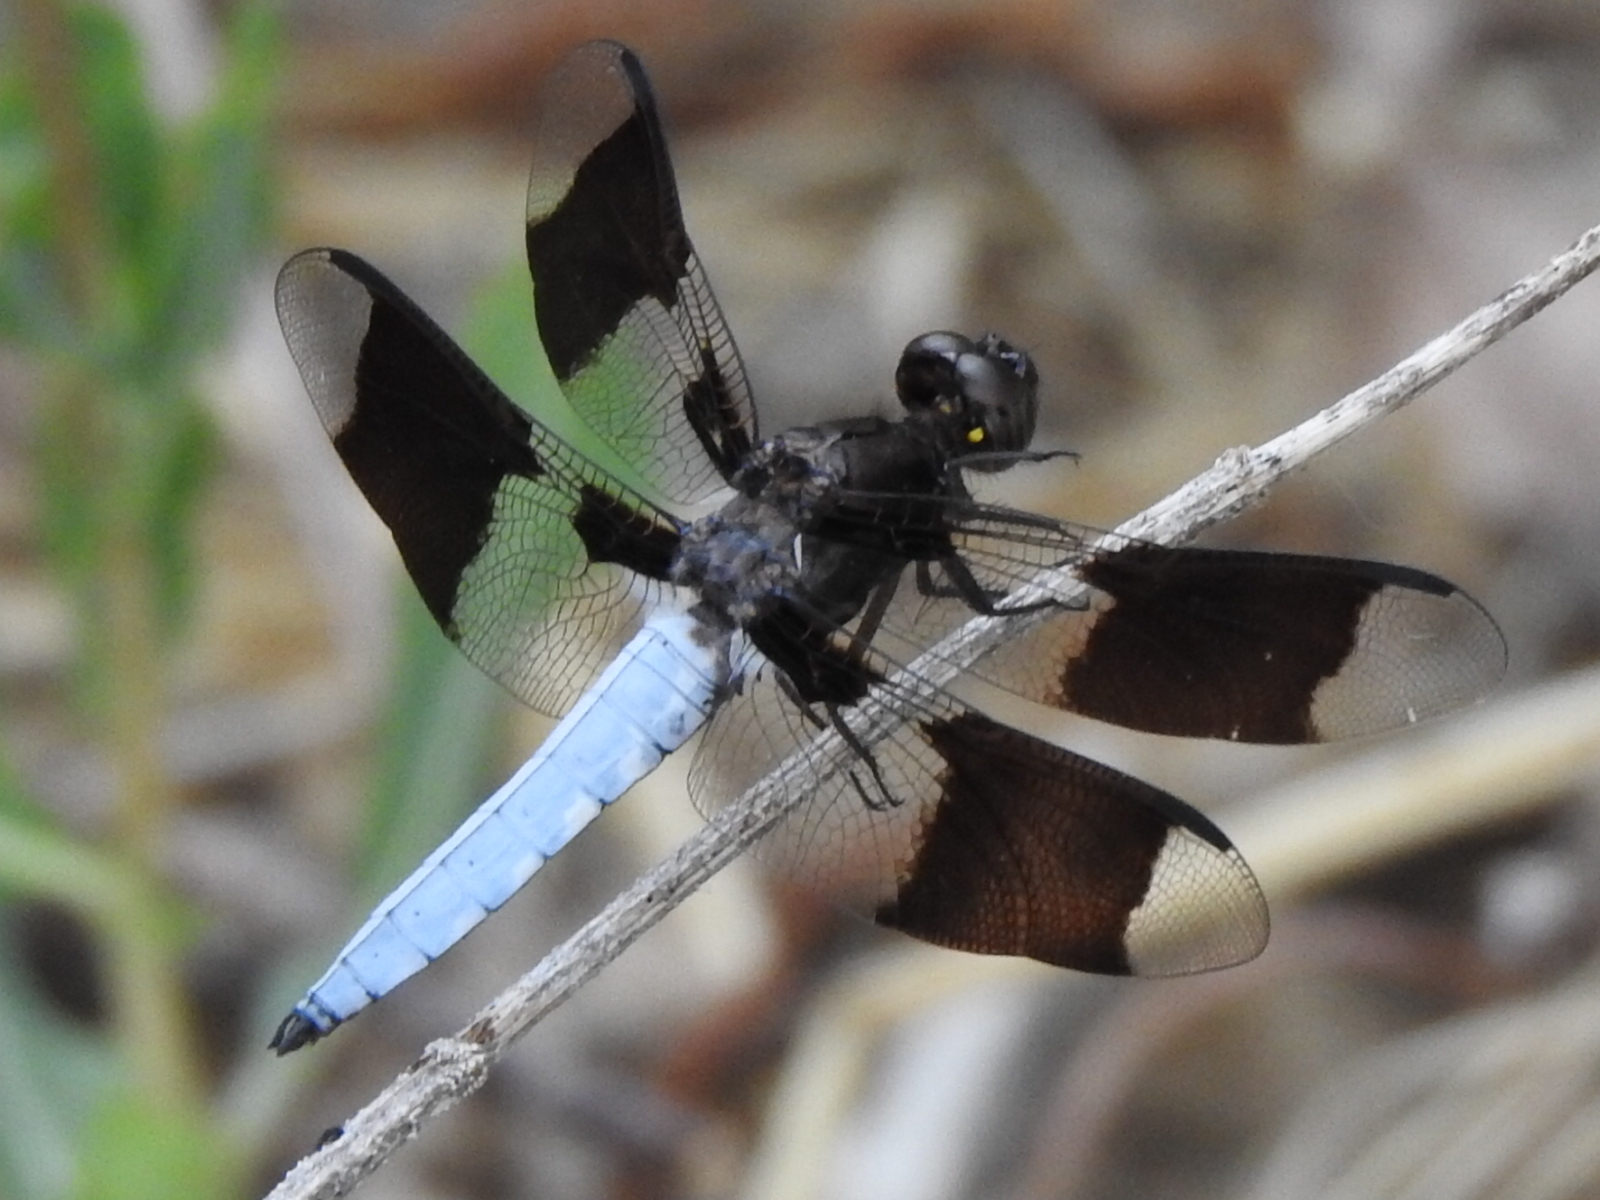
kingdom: Animalia
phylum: Arthropoda
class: Insecta
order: Odonata
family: Libellulidae
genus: Plathemis
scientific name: Plathemis lydia
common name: Common whitetail
